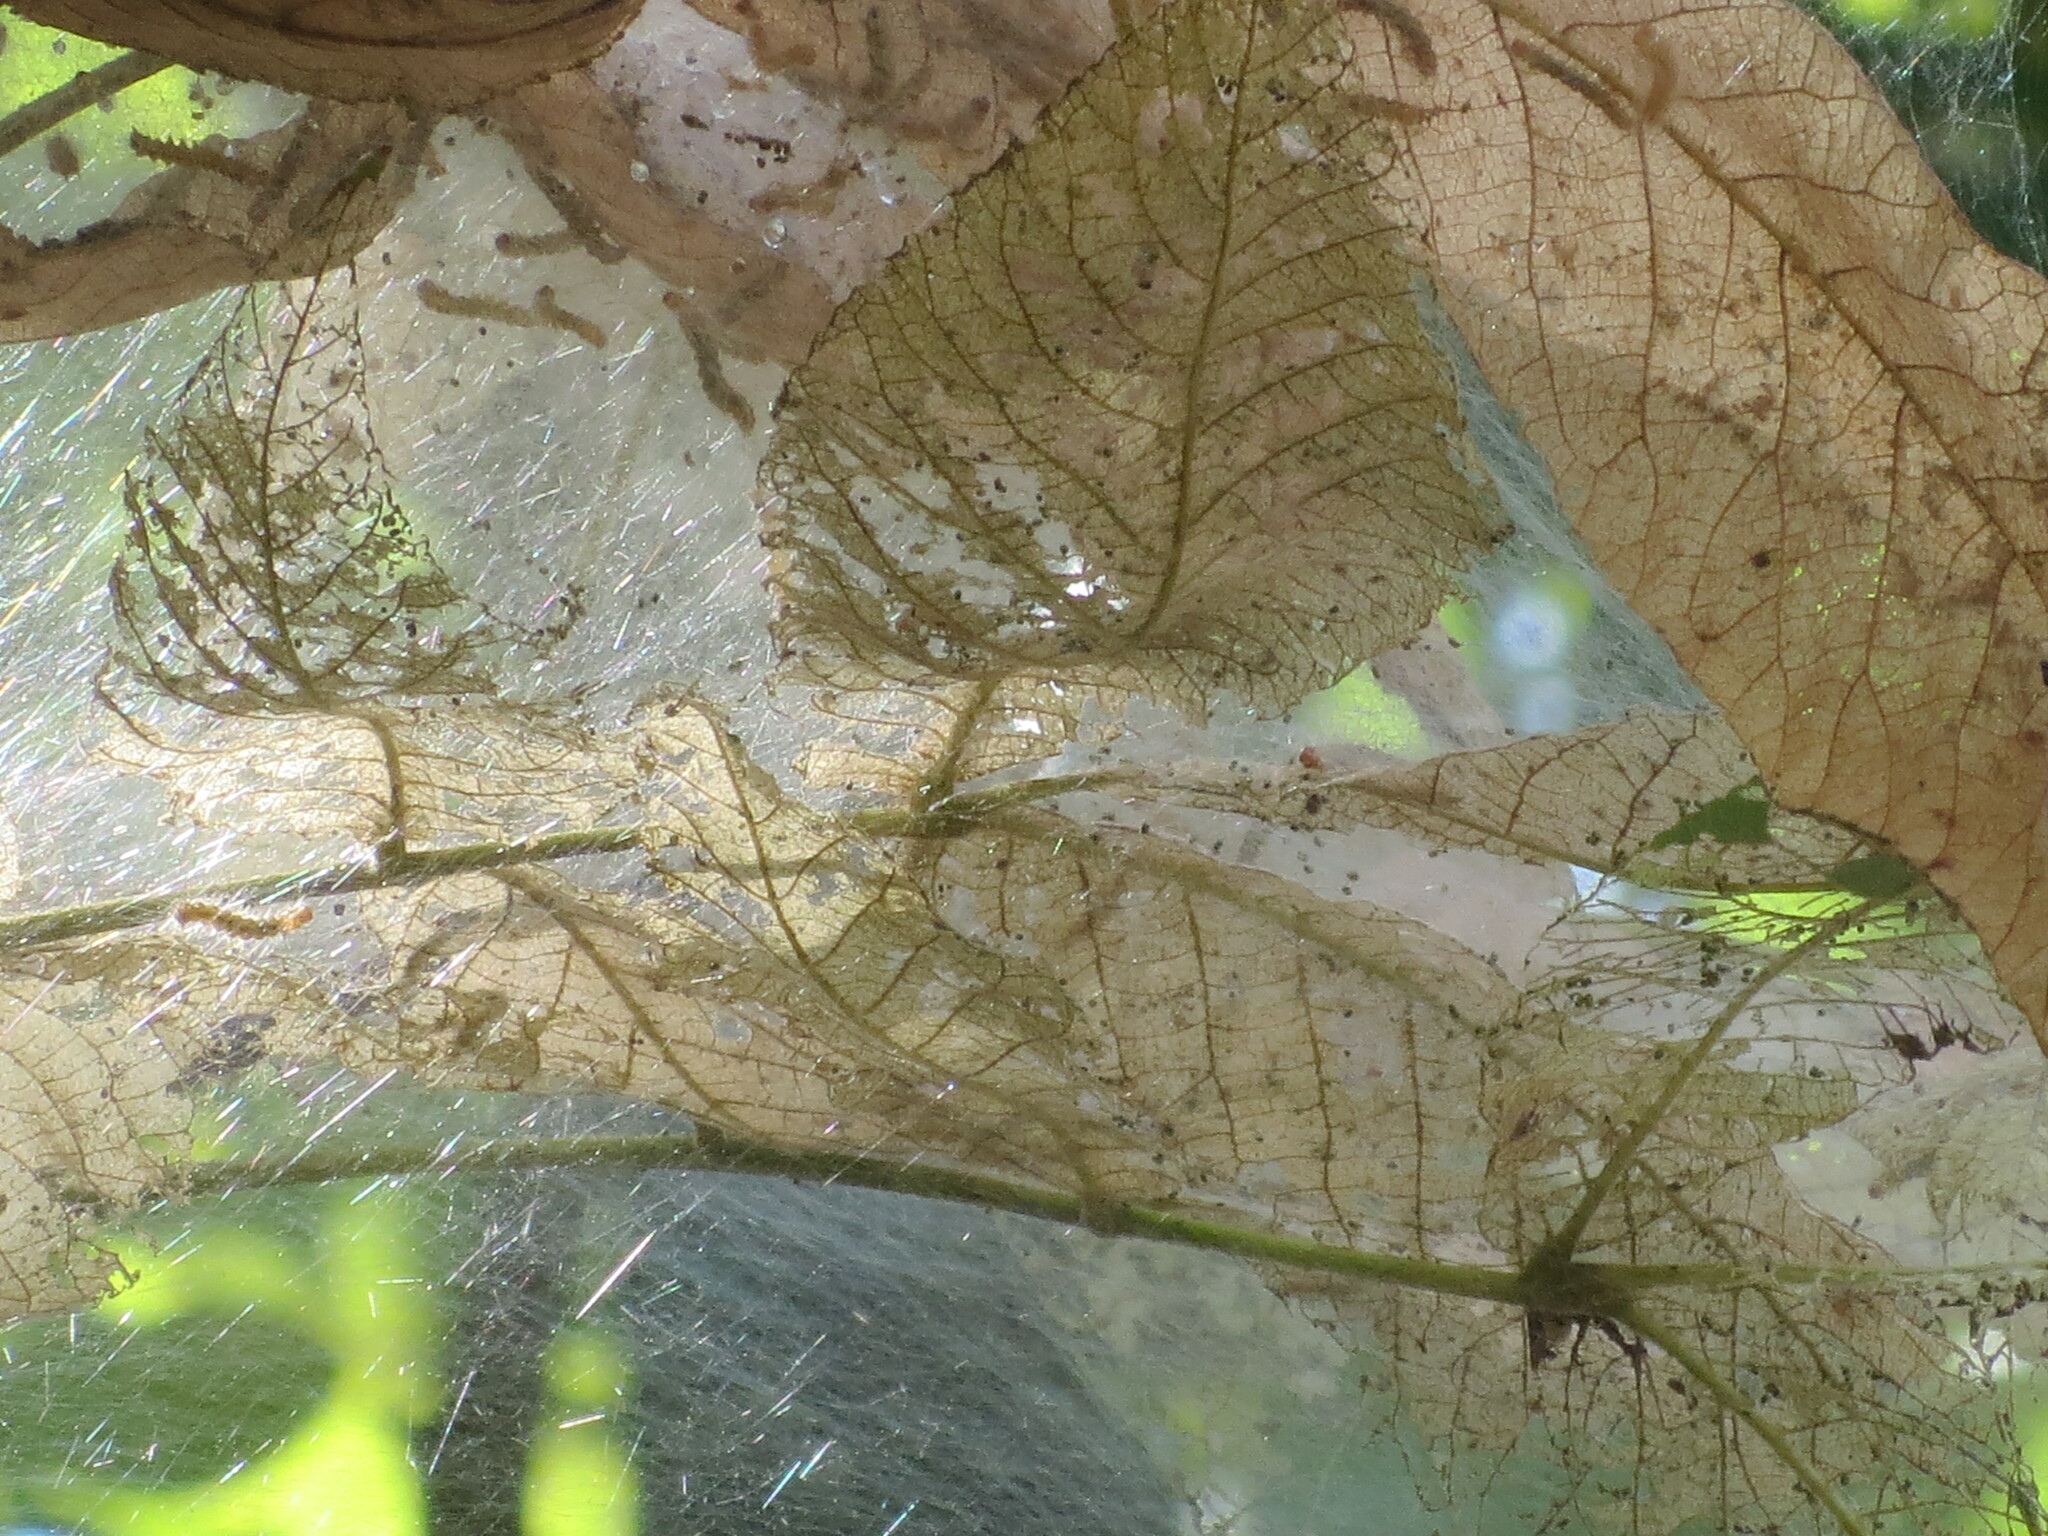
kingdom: Animalia
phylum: Arthropoda
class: Insecta
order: Lepidoptera
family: Erebidae
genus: Hyphantria
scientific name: Hyphantria cunea
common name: American white moth
